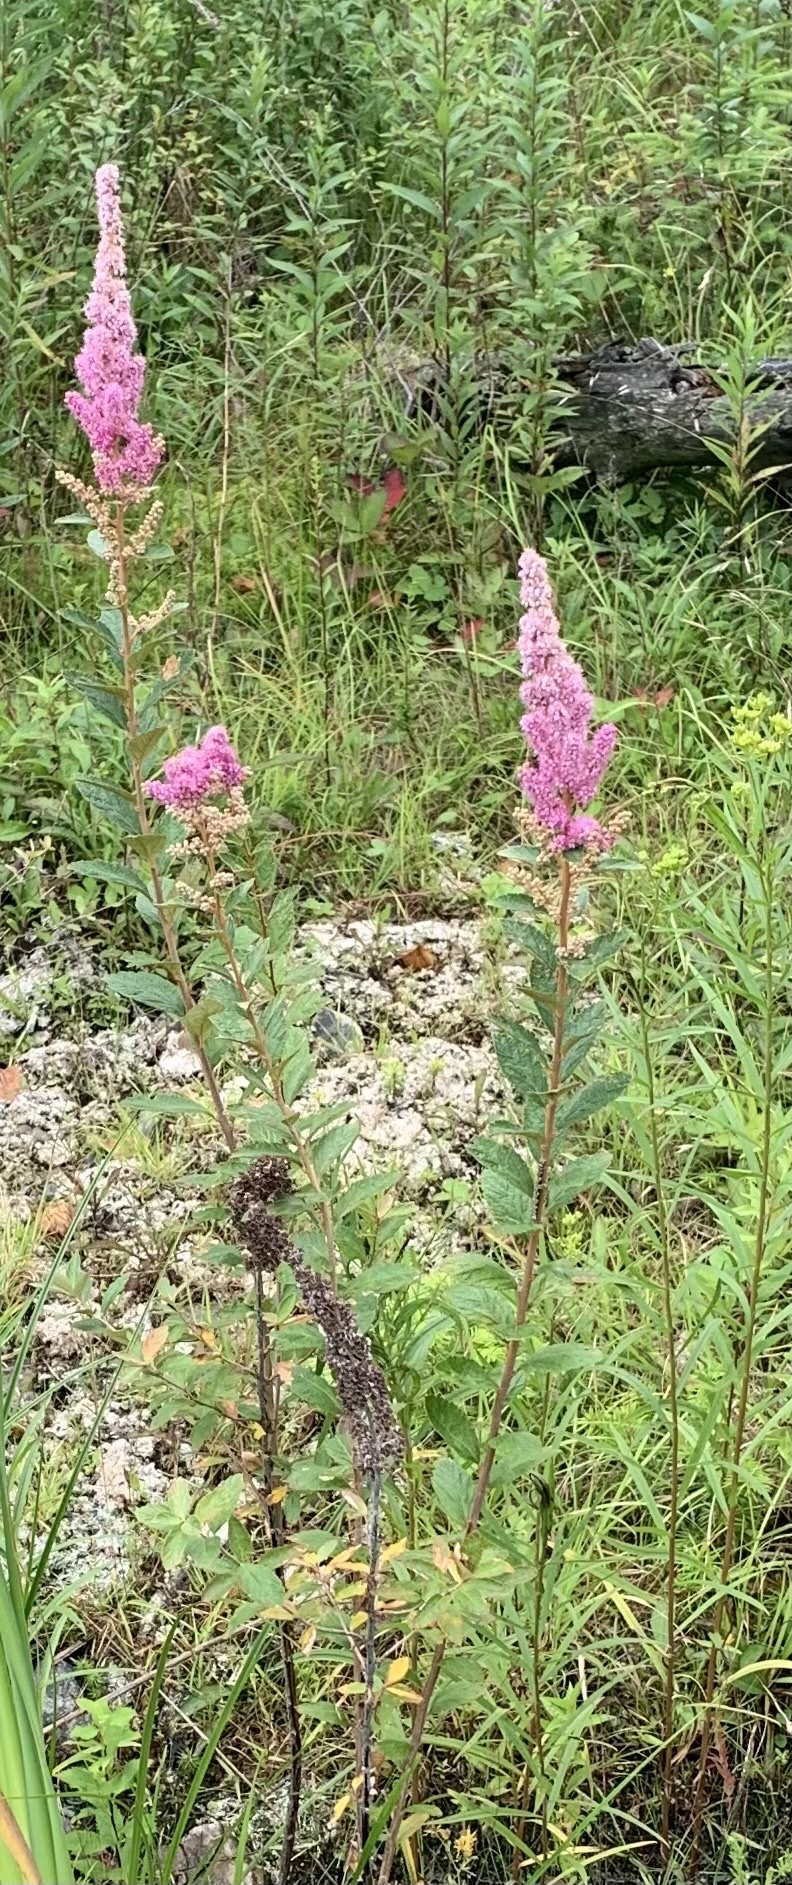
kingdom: Plantae
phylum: Tracheophyta
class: Magnoliopsida
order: Rosales
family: Rosaceae
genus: Spiraea
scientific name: Spiraea tomentosa
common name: Hardhack
